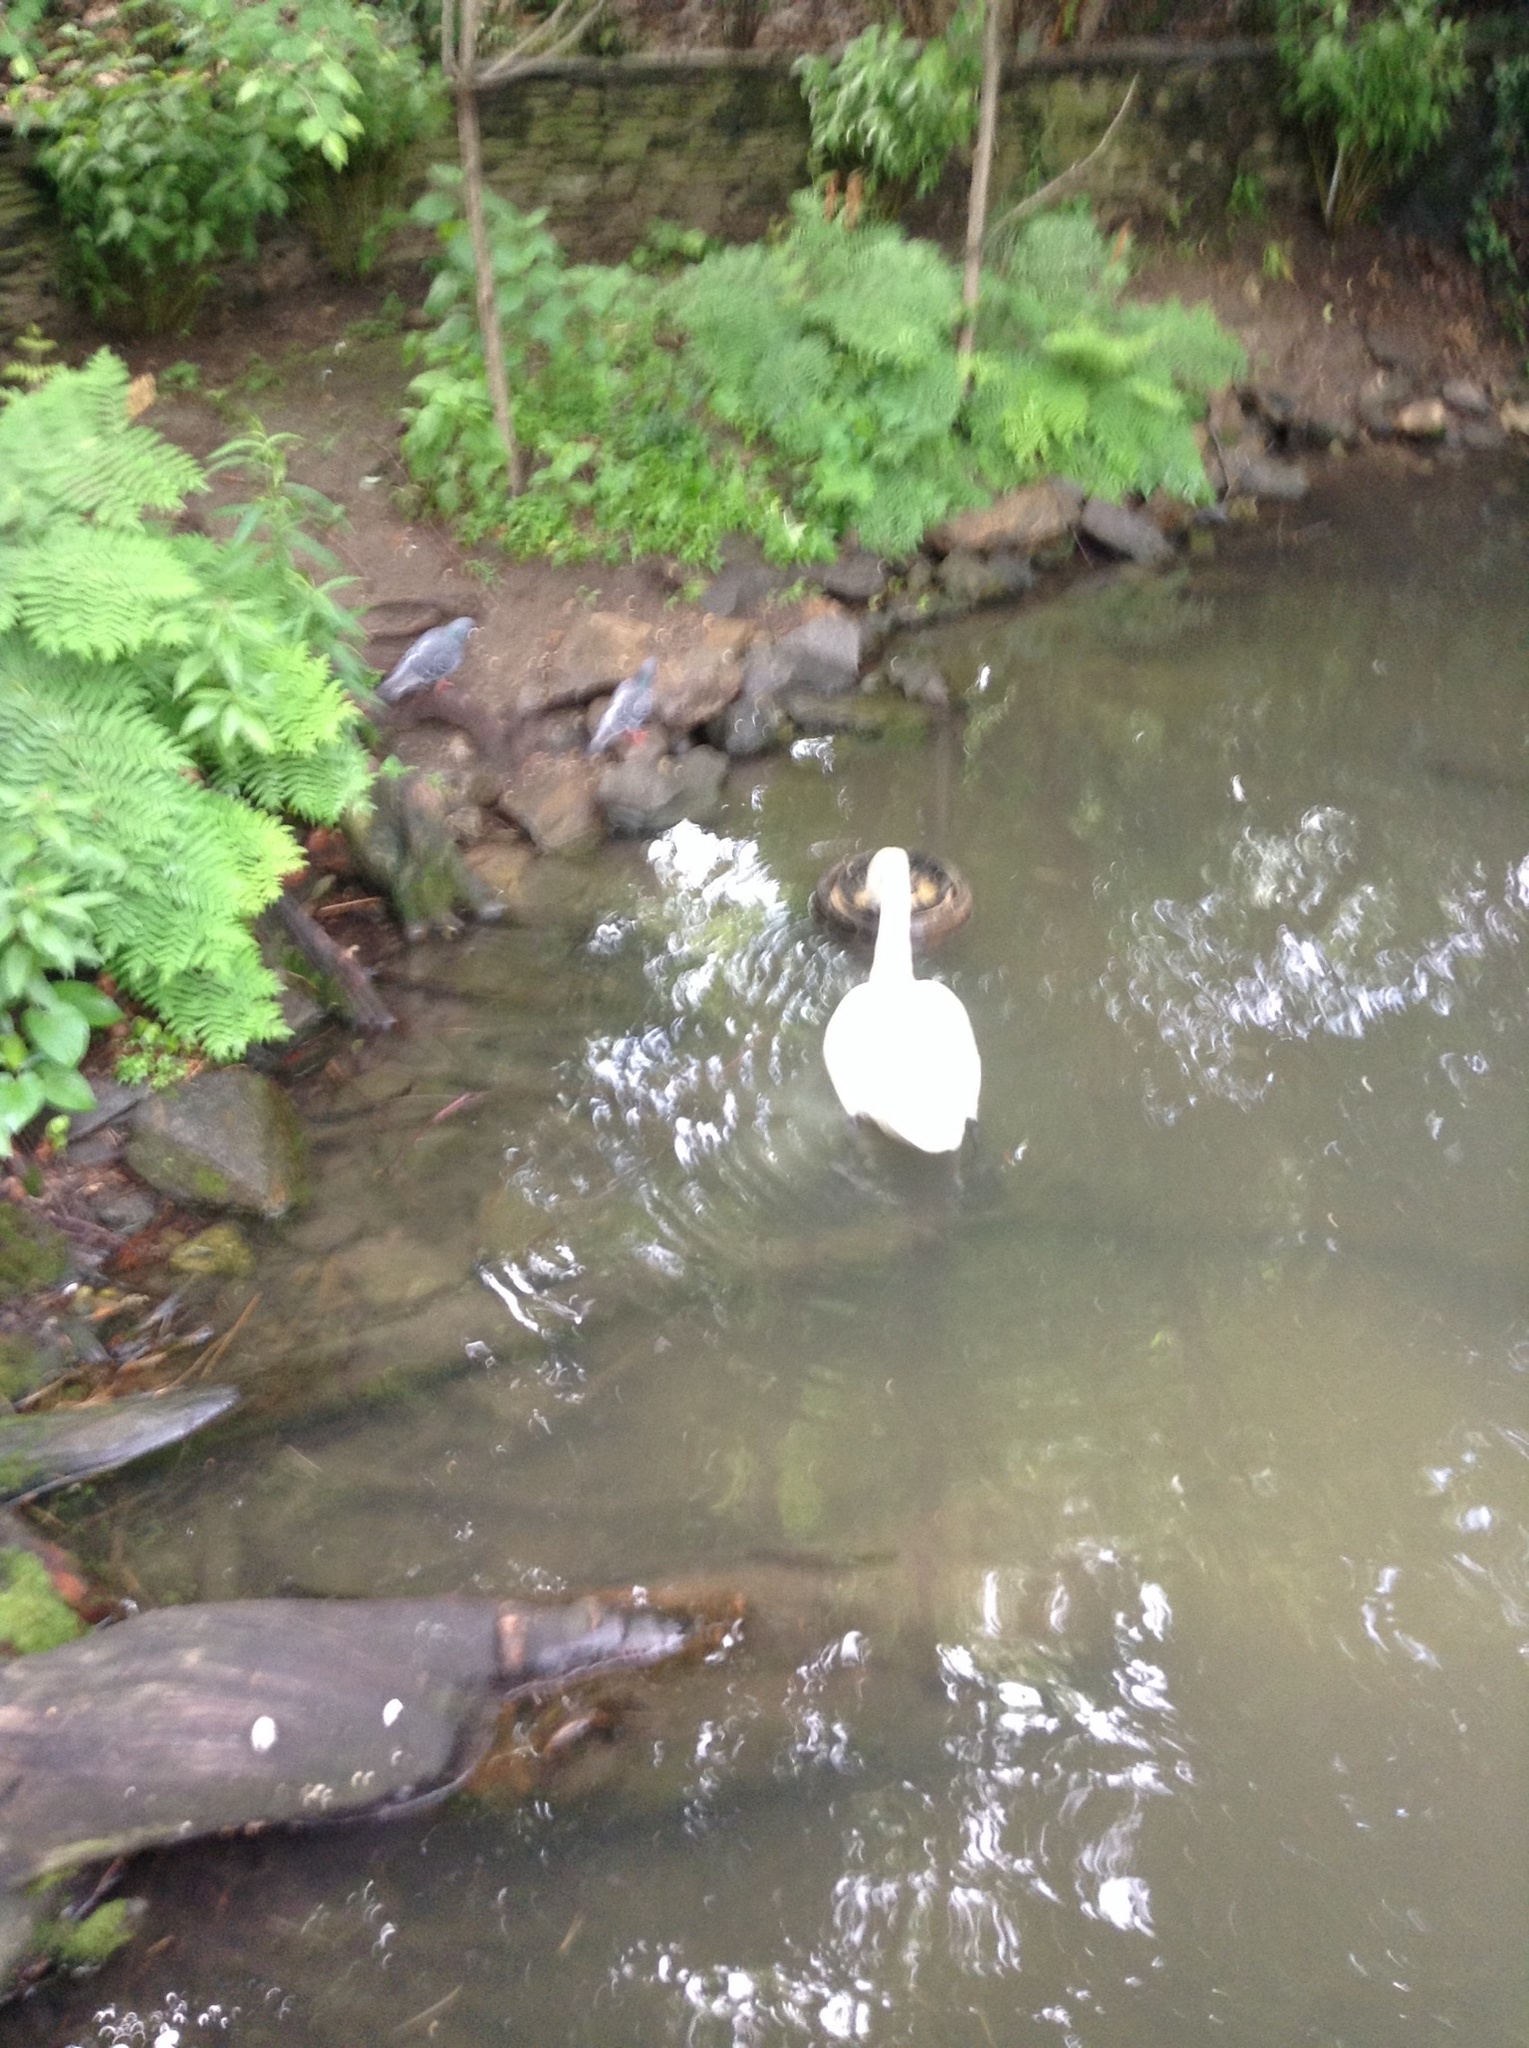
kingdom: Animalia
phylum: Chordata
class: Aves
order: Anseriformes
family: Anatidae
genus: Cygnus
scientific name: Cygnus olor
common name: Mute swan
